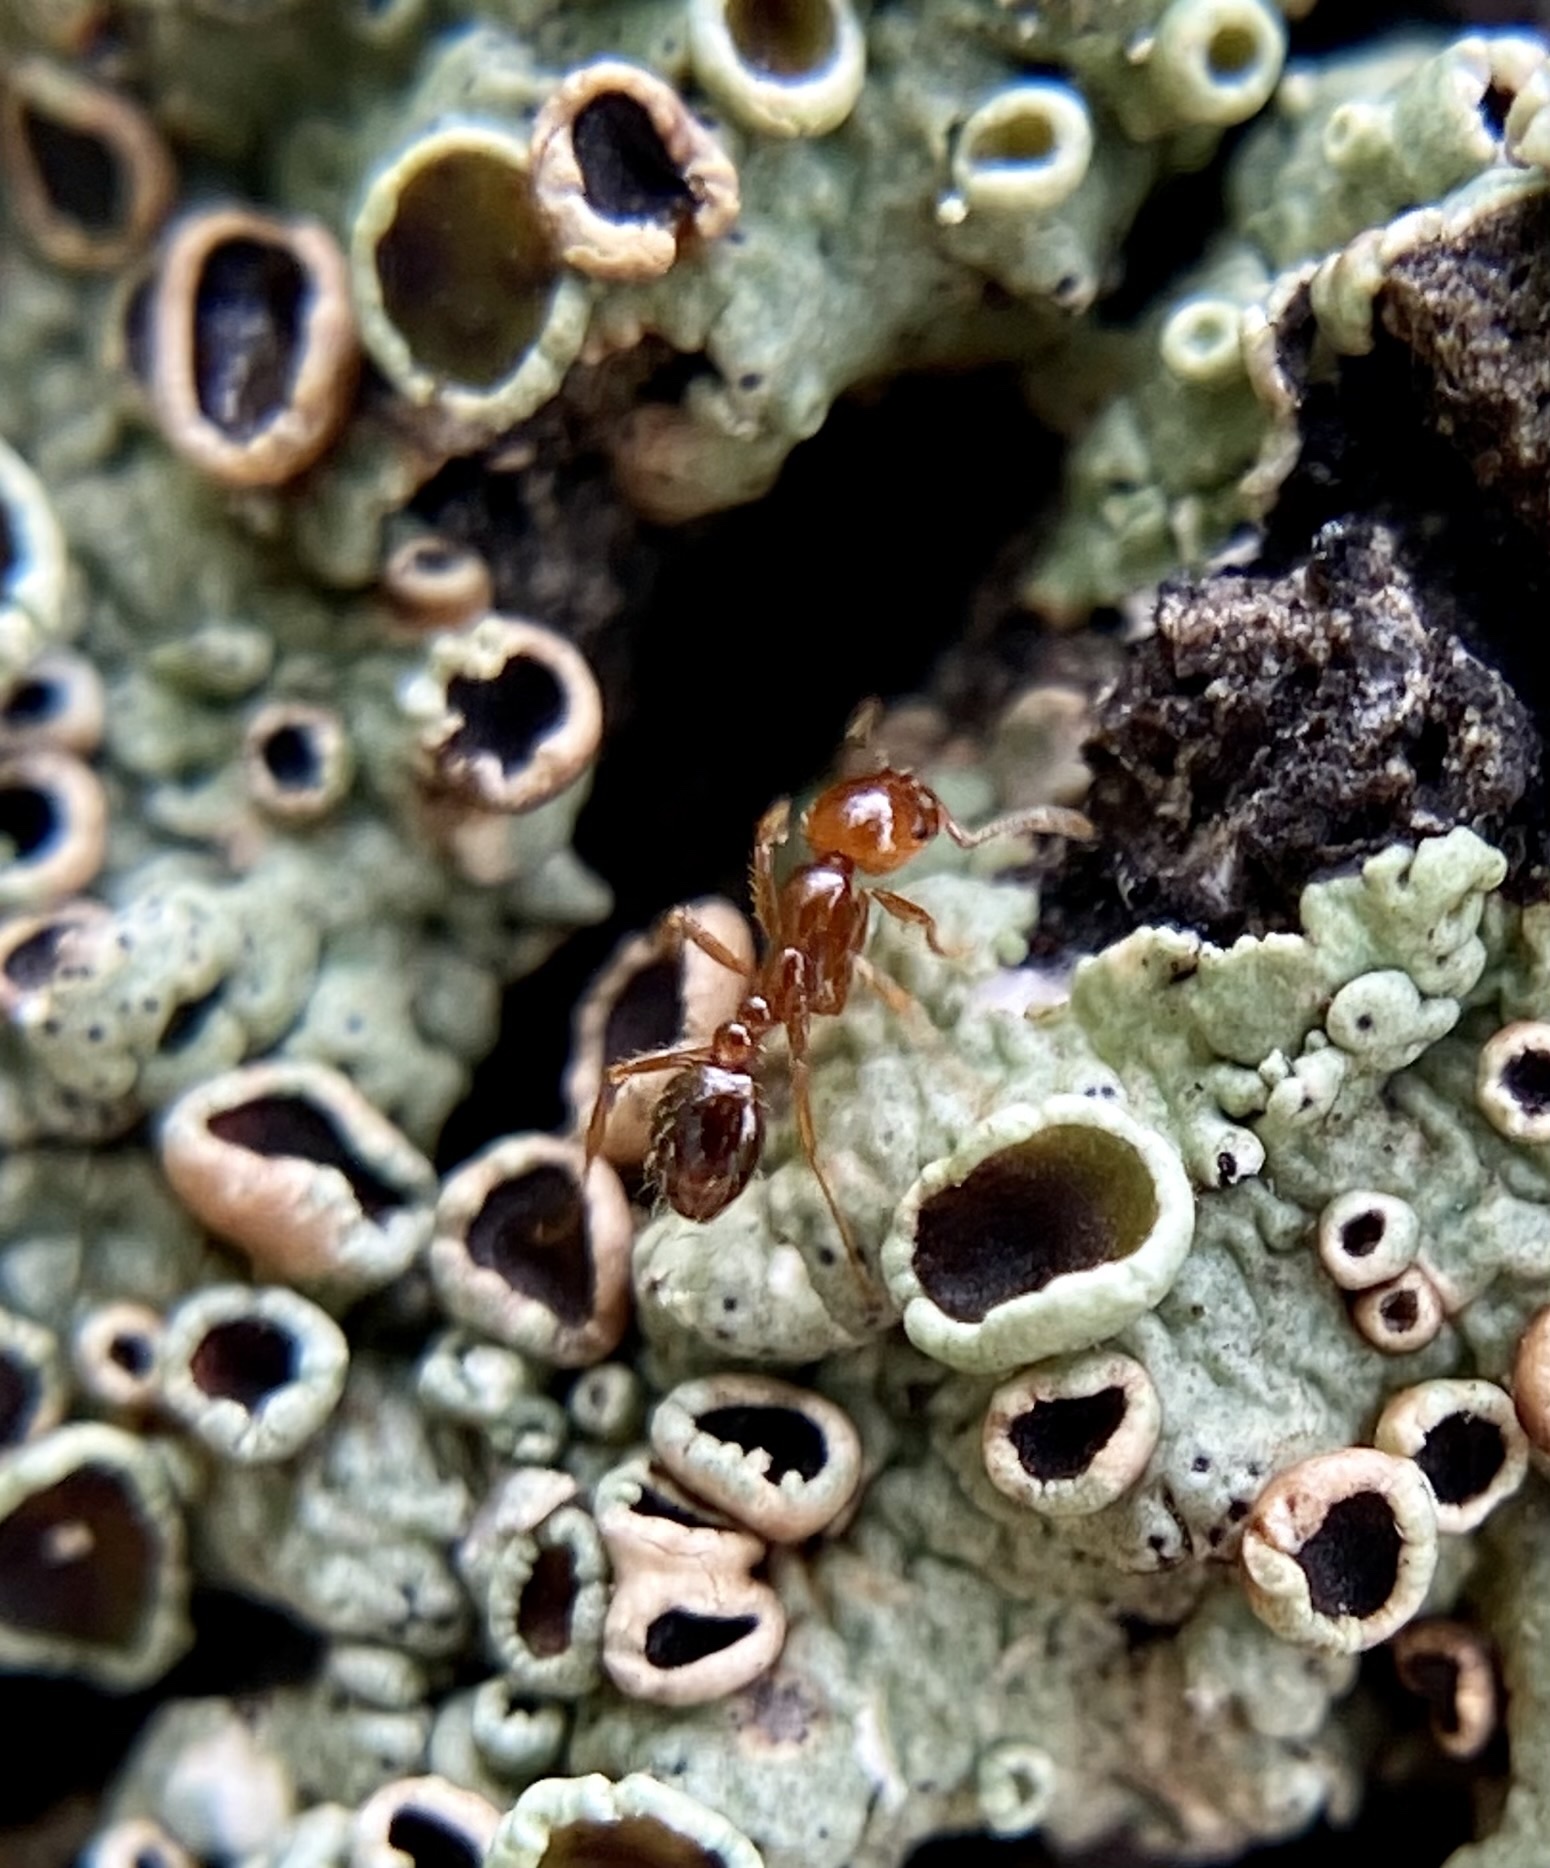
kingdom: Animalia
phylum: Arthropoda
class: Insecta
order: Hymenoptera
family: Formicidae
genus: Solenopsis
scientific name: Solenopsis invicta
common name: Red imported fire ant
